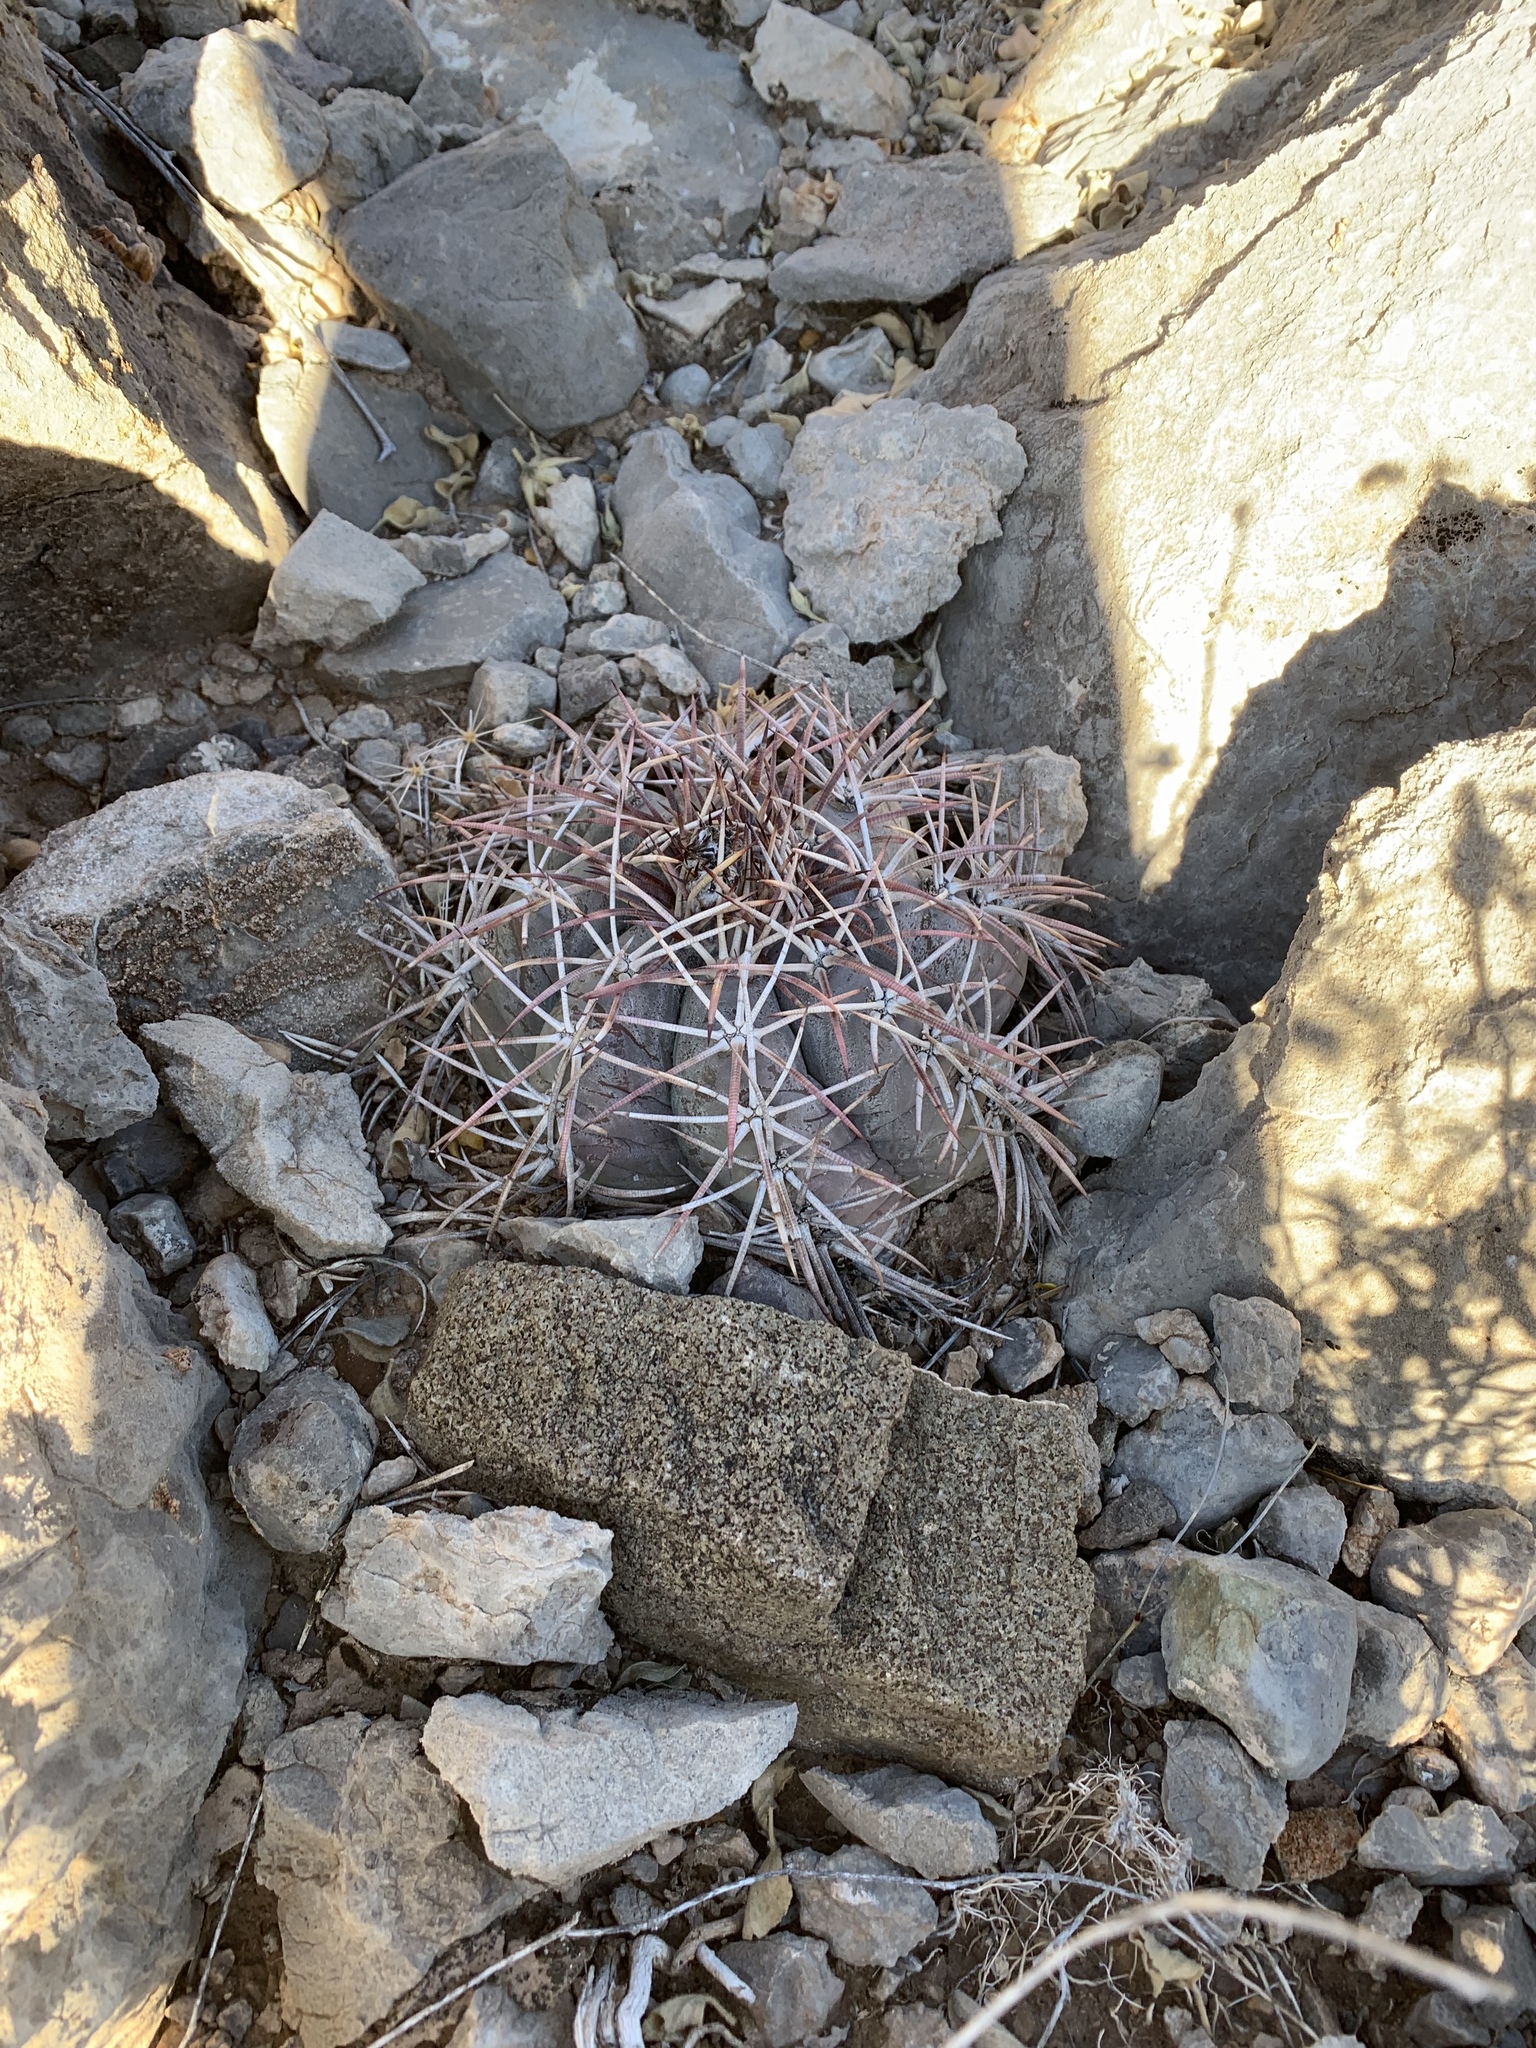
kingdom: Plantae
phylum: Tracheophyta
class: Magnoliopsida
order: Caryophyllales
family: Cactaceae
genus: Echinocactus
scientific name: Echinocactus horizonthalonius
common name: Devilshead
